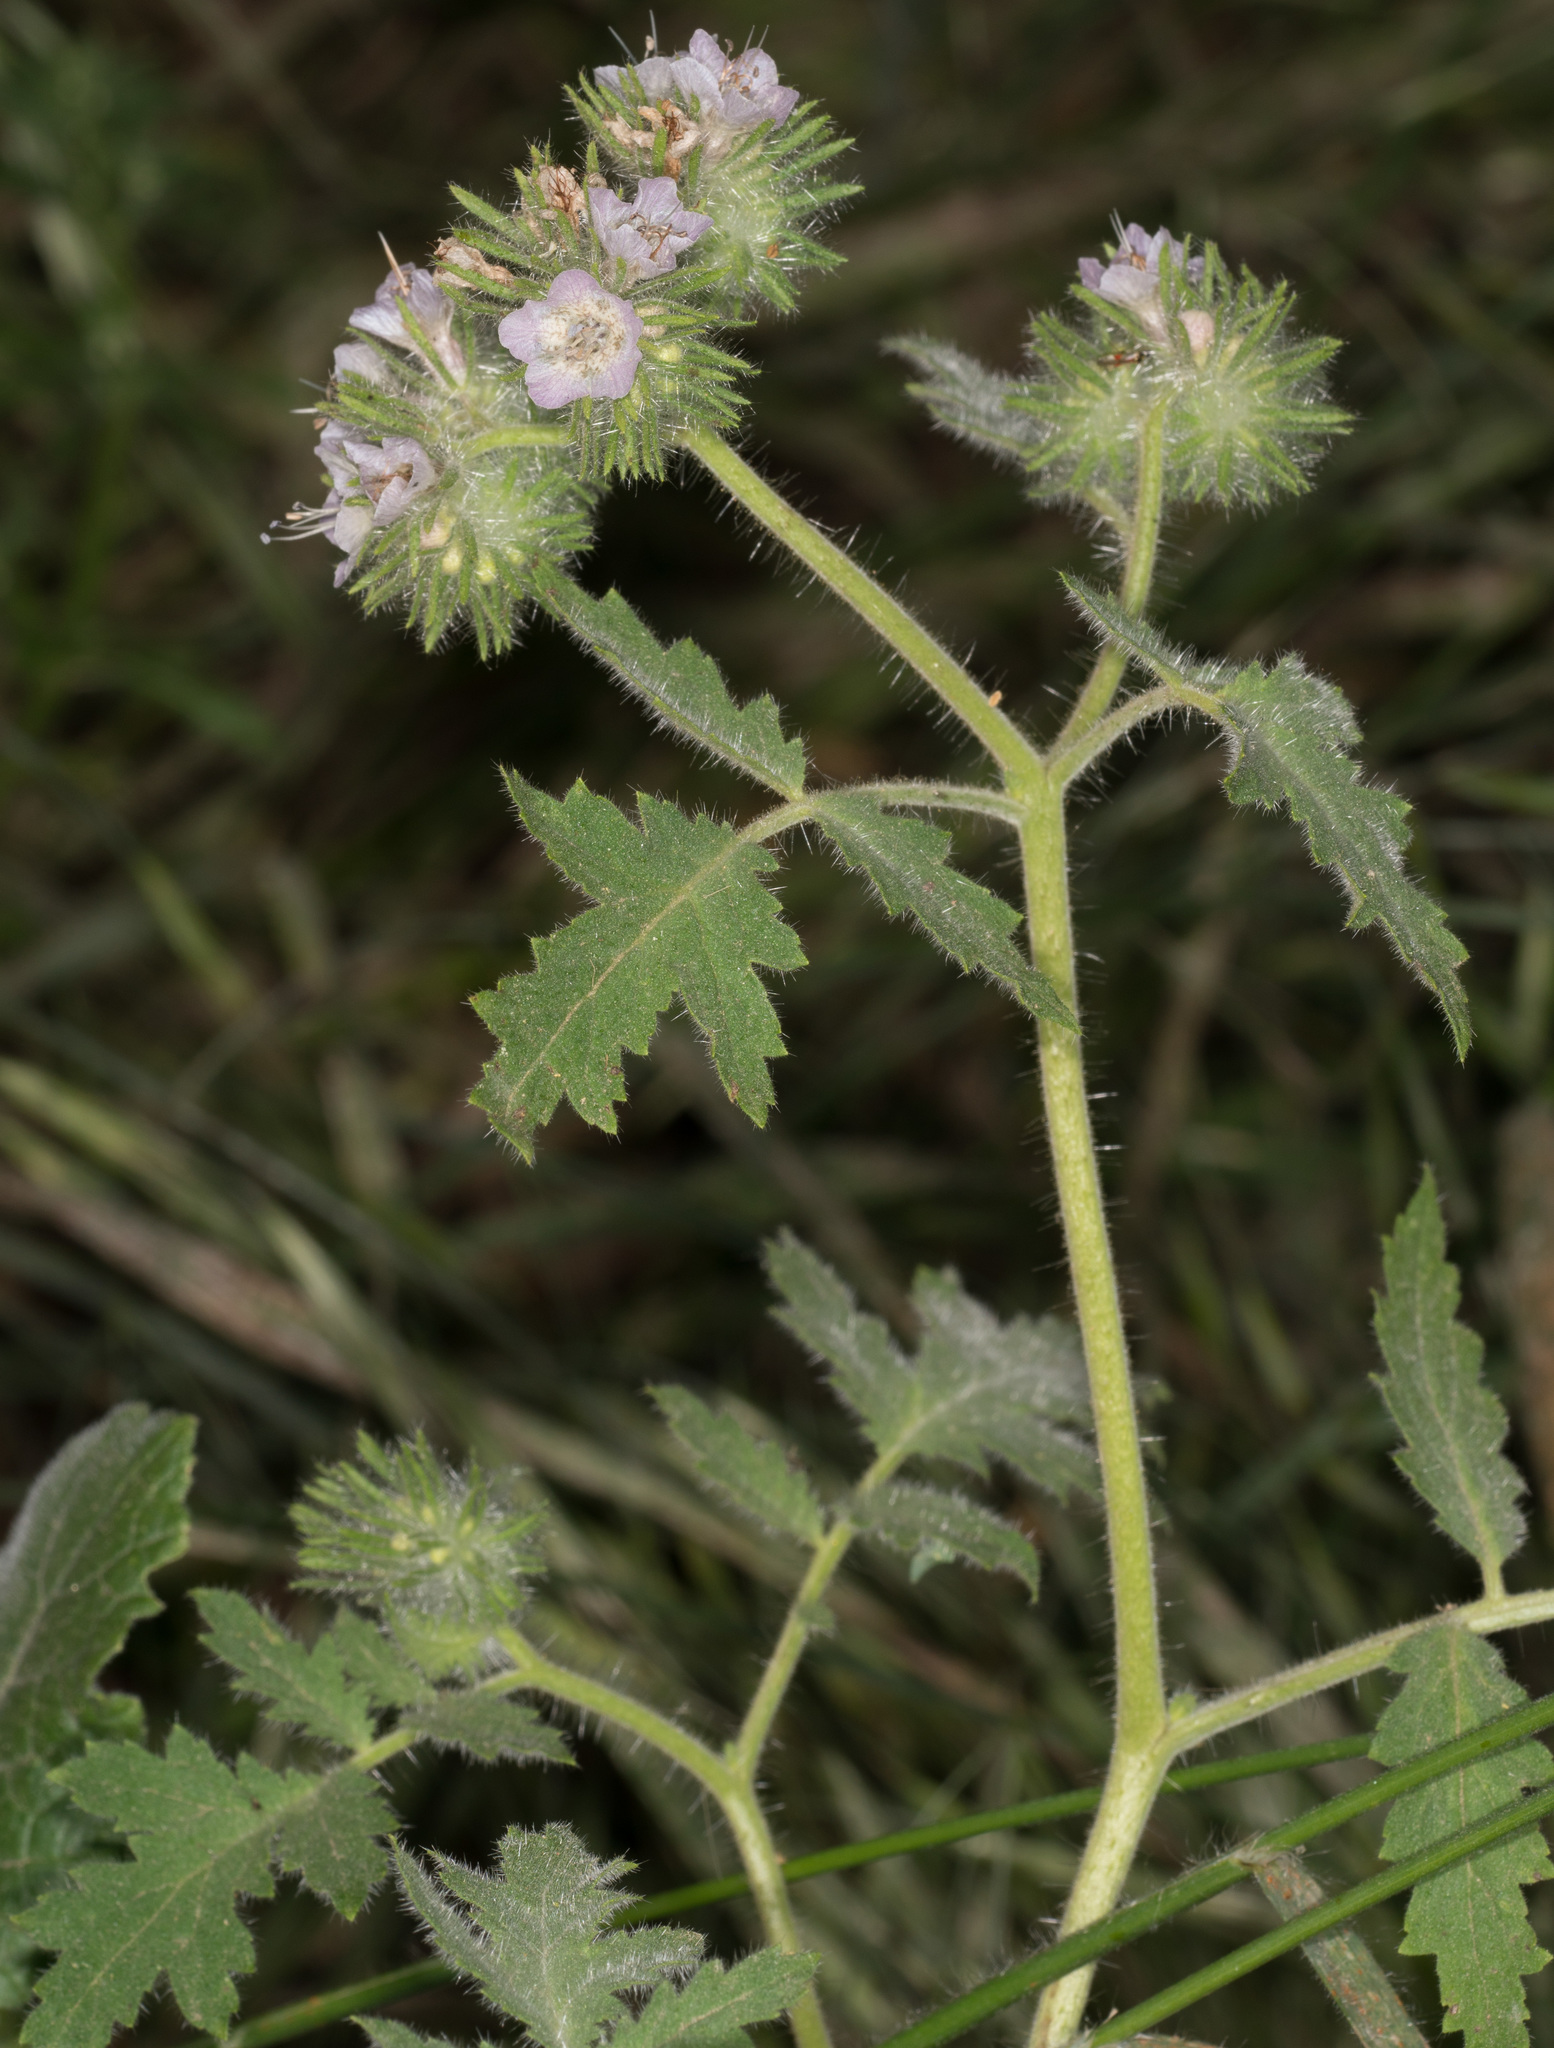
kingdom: Plantae
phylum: Tracheophyta
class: Magnoliopsida
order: Boraginales
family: Hydrophyllaceae
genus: Phacelia
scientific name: Phacelia cicutaria
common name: Caterpillar phacelia
